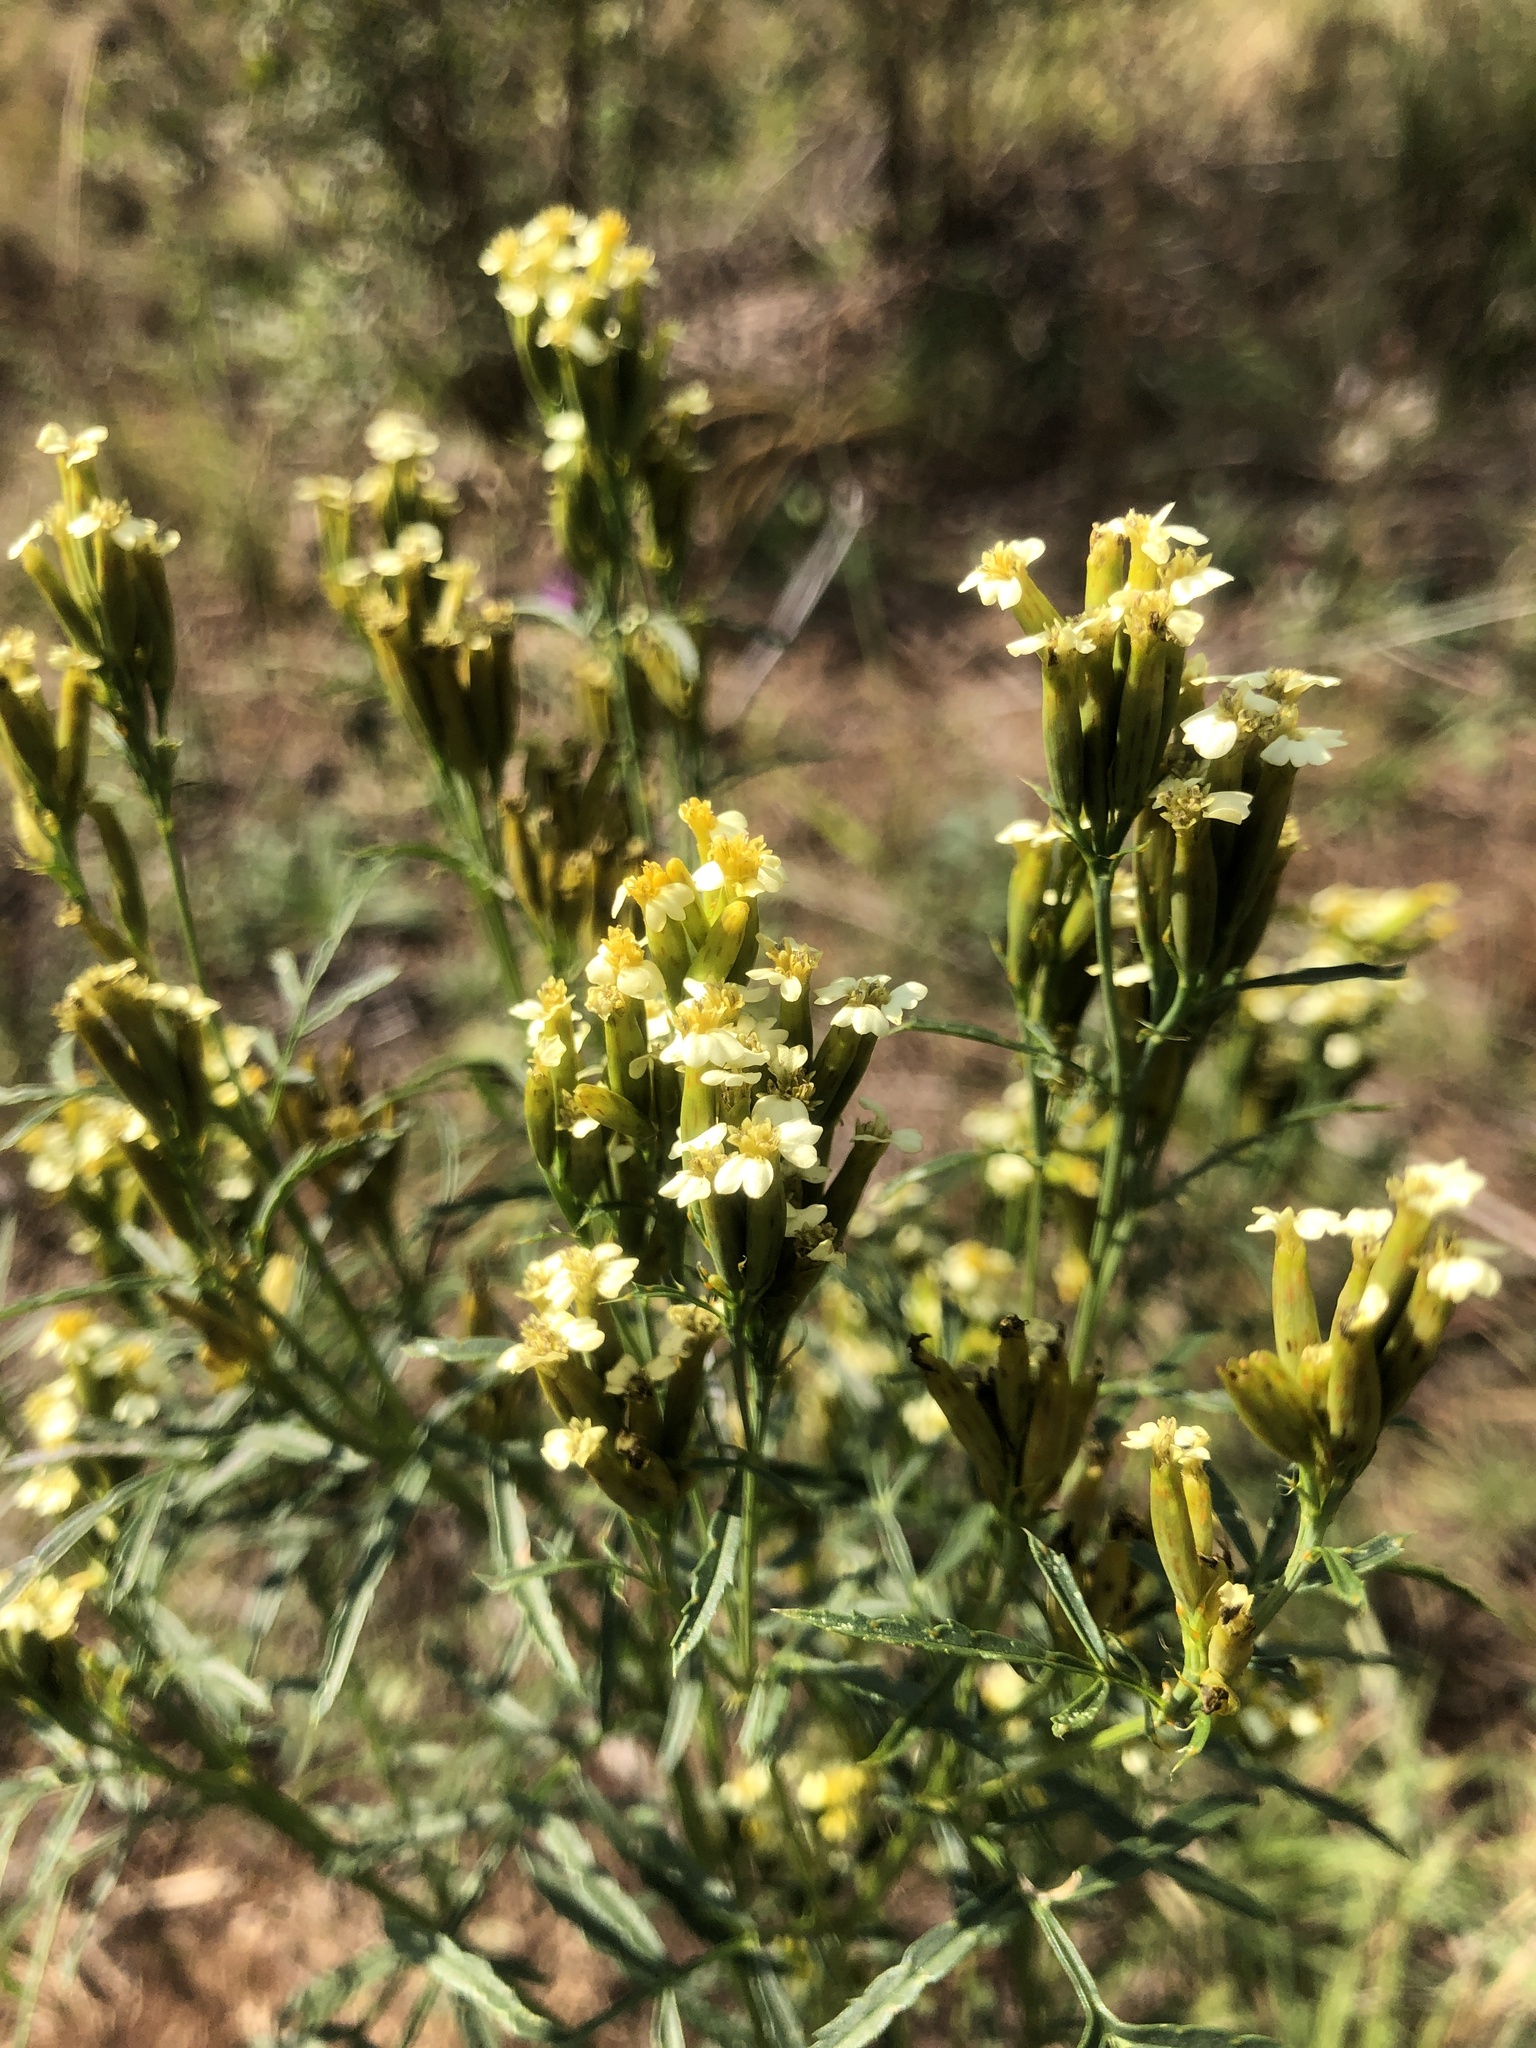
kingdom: Plantae
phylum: Tracheophyta
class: Magnoliopsida
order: Asterales
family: Asteraceae
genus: Tagetes
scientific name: Tagetes minuta
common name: Muster john henry
